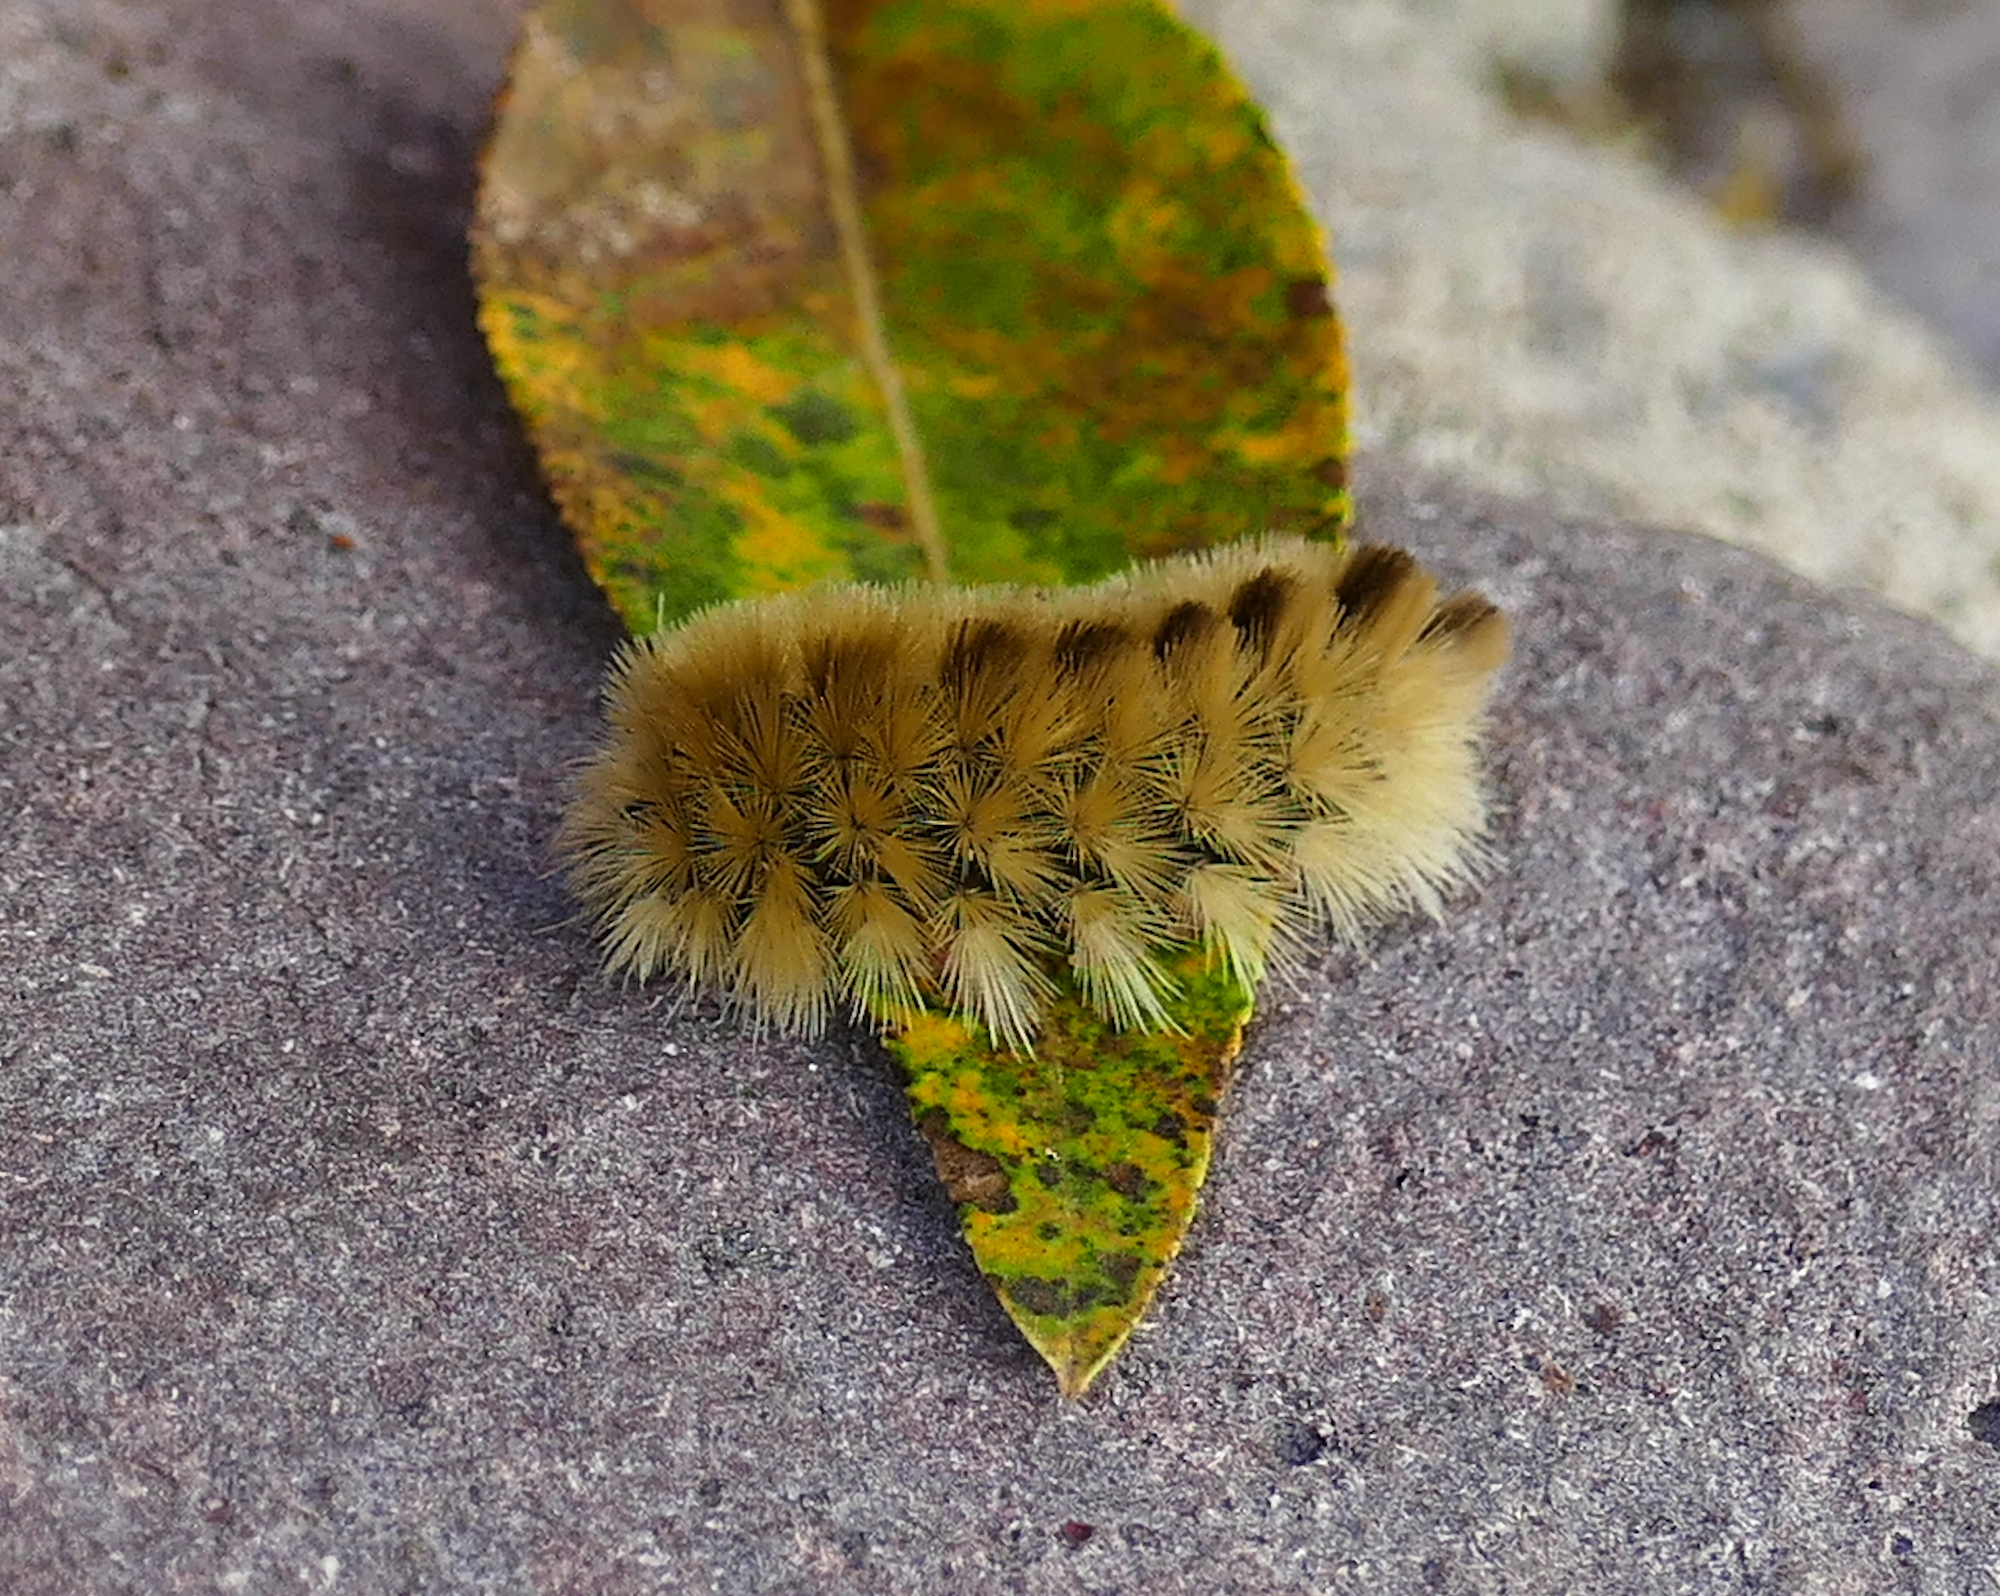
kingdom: Animalia
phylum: Arthropoda
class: Insecta
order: Lepidoptera
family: Erebidae
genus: Halysidota
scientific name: Halysidota tessellaris
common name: Banded tussock moth
